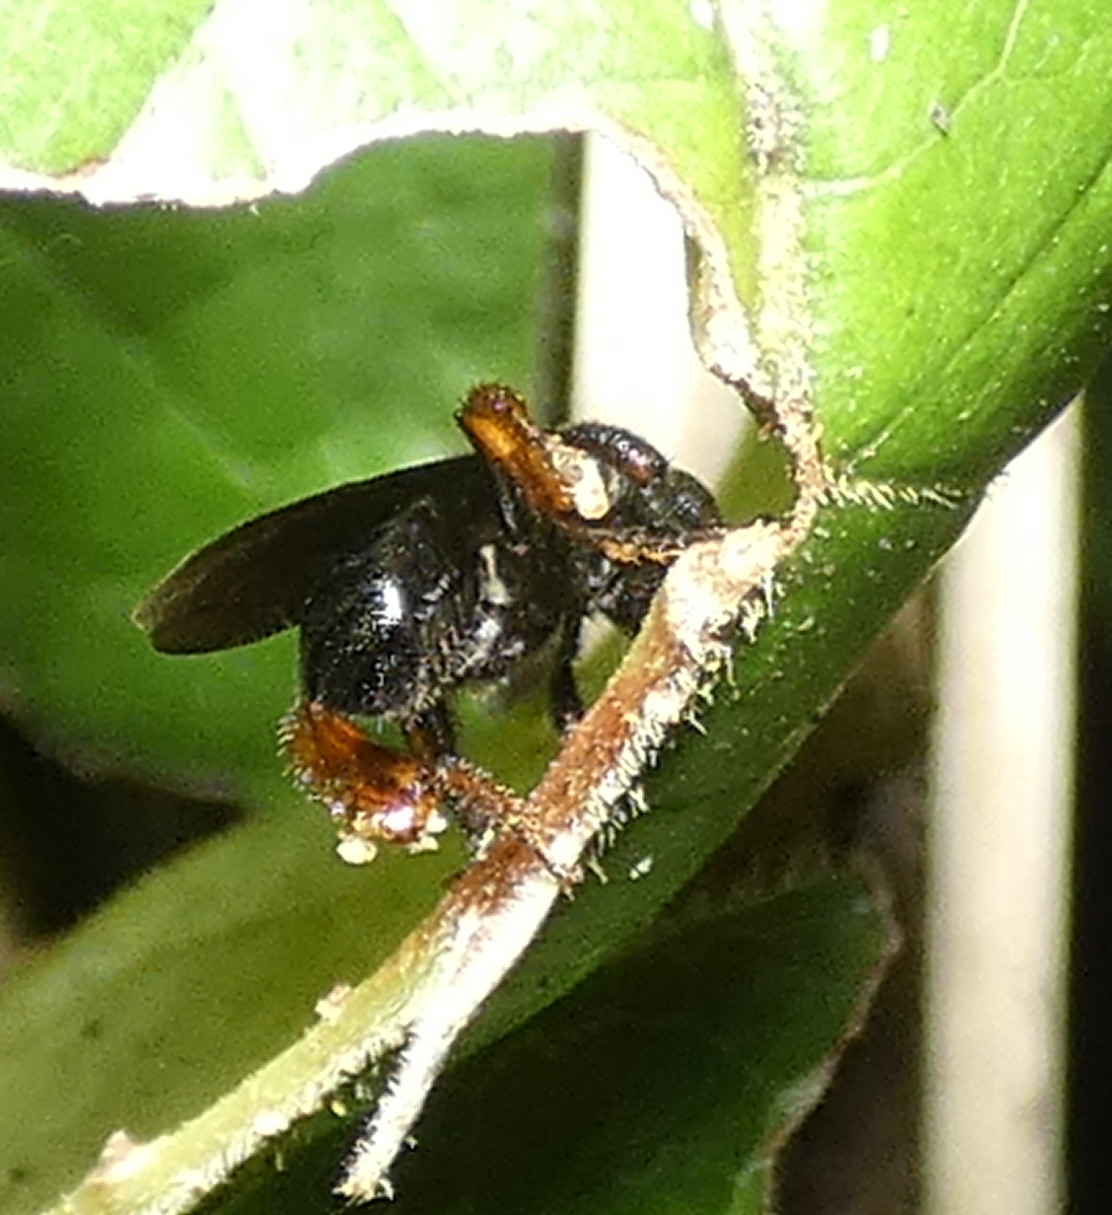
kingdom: Animalia
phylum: Arthropoda
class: Insecta
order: Hymenoptera
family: Apidae
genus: Trigona
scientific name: Trigona spinipes
